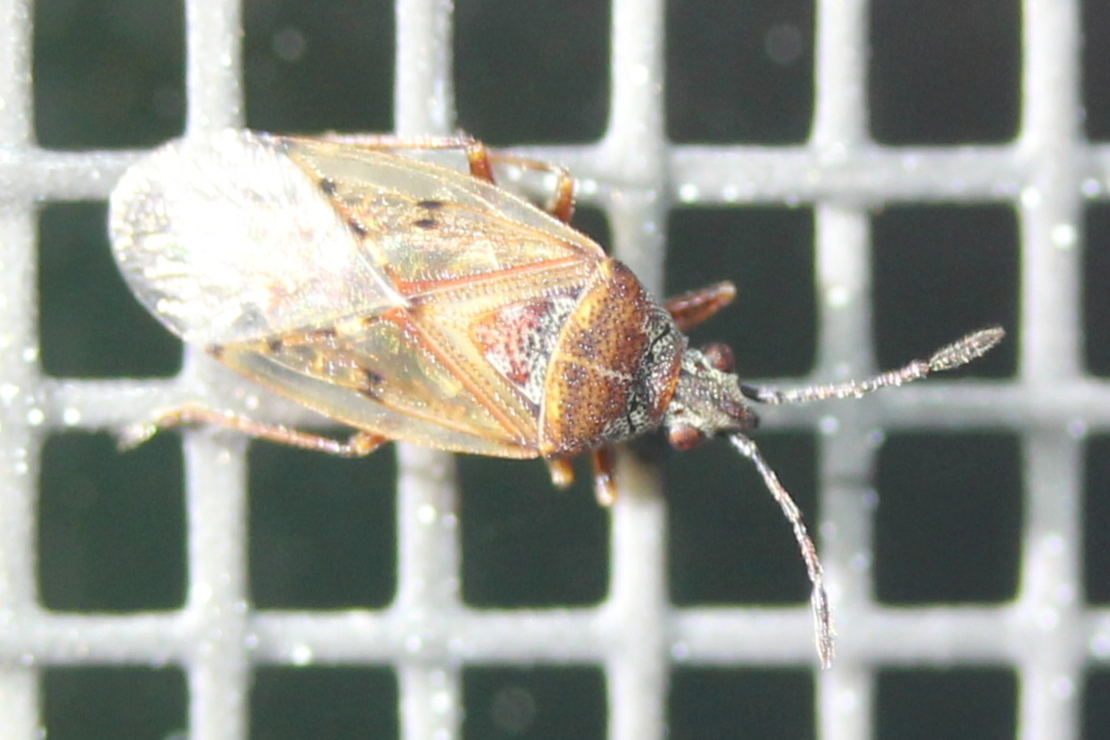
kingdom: Animalia
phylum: Arthropoda
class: Insecta
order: Hemiptera
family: Lygaeidae
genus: Kleidocerys
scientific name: Kleidocerys resedae
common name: Birch catkin bug
